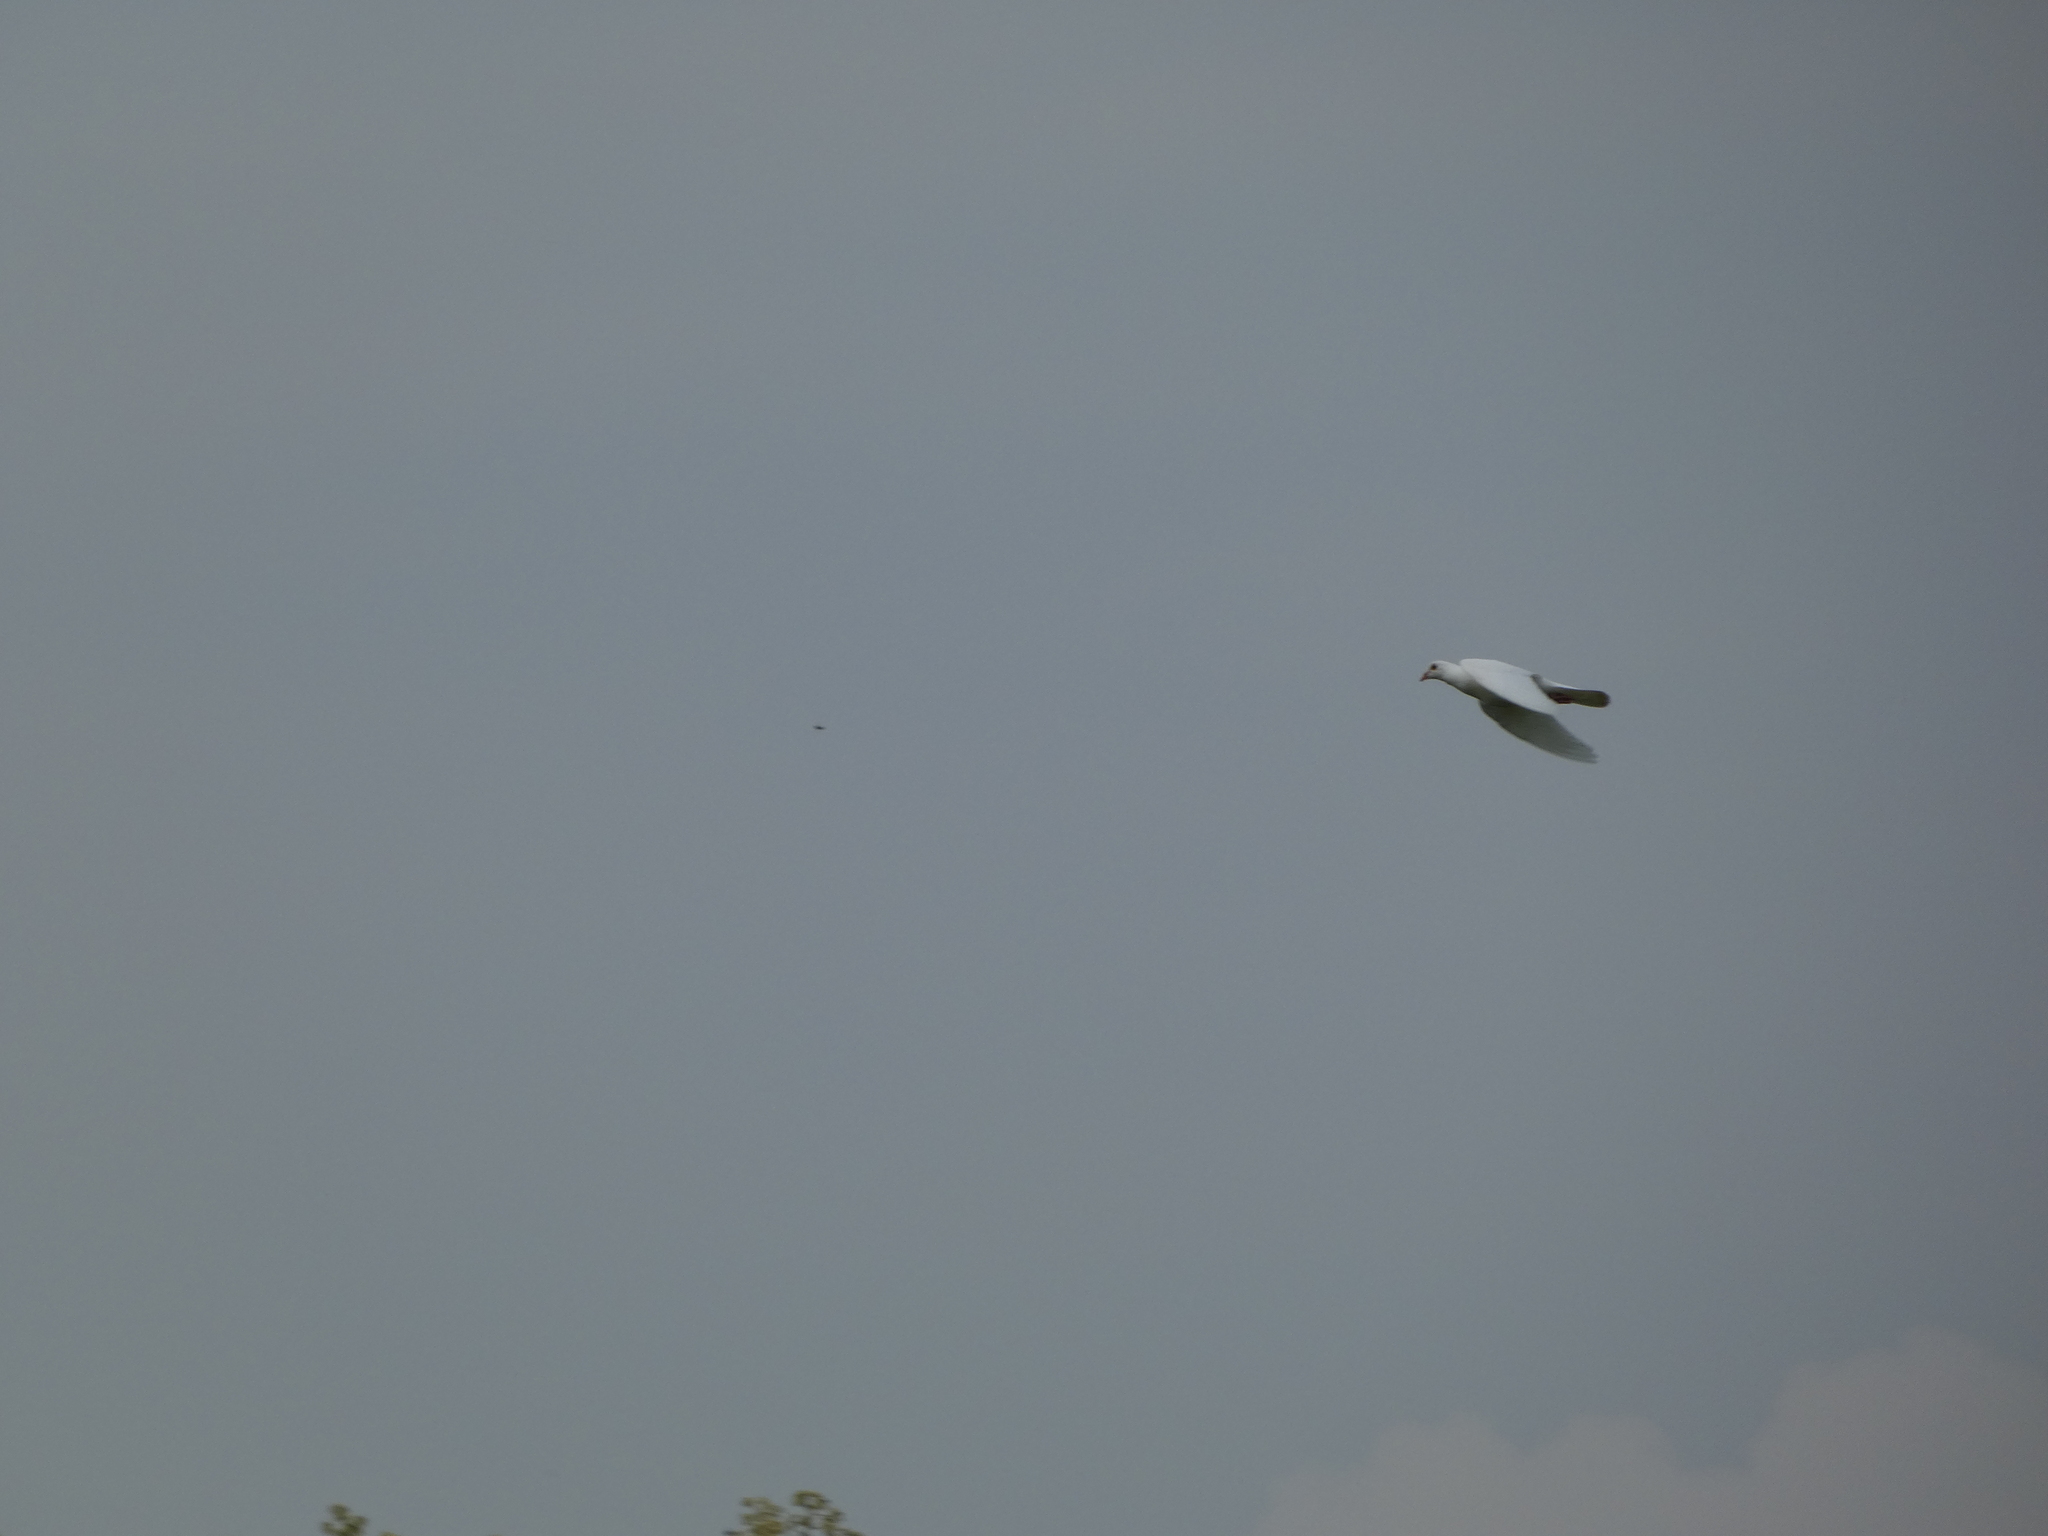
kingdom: Animalia
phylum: Chordata
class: Aves
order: Columbiformes
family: Columbidae
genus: Columba
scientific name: Columba livia
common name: Rock pigeon
